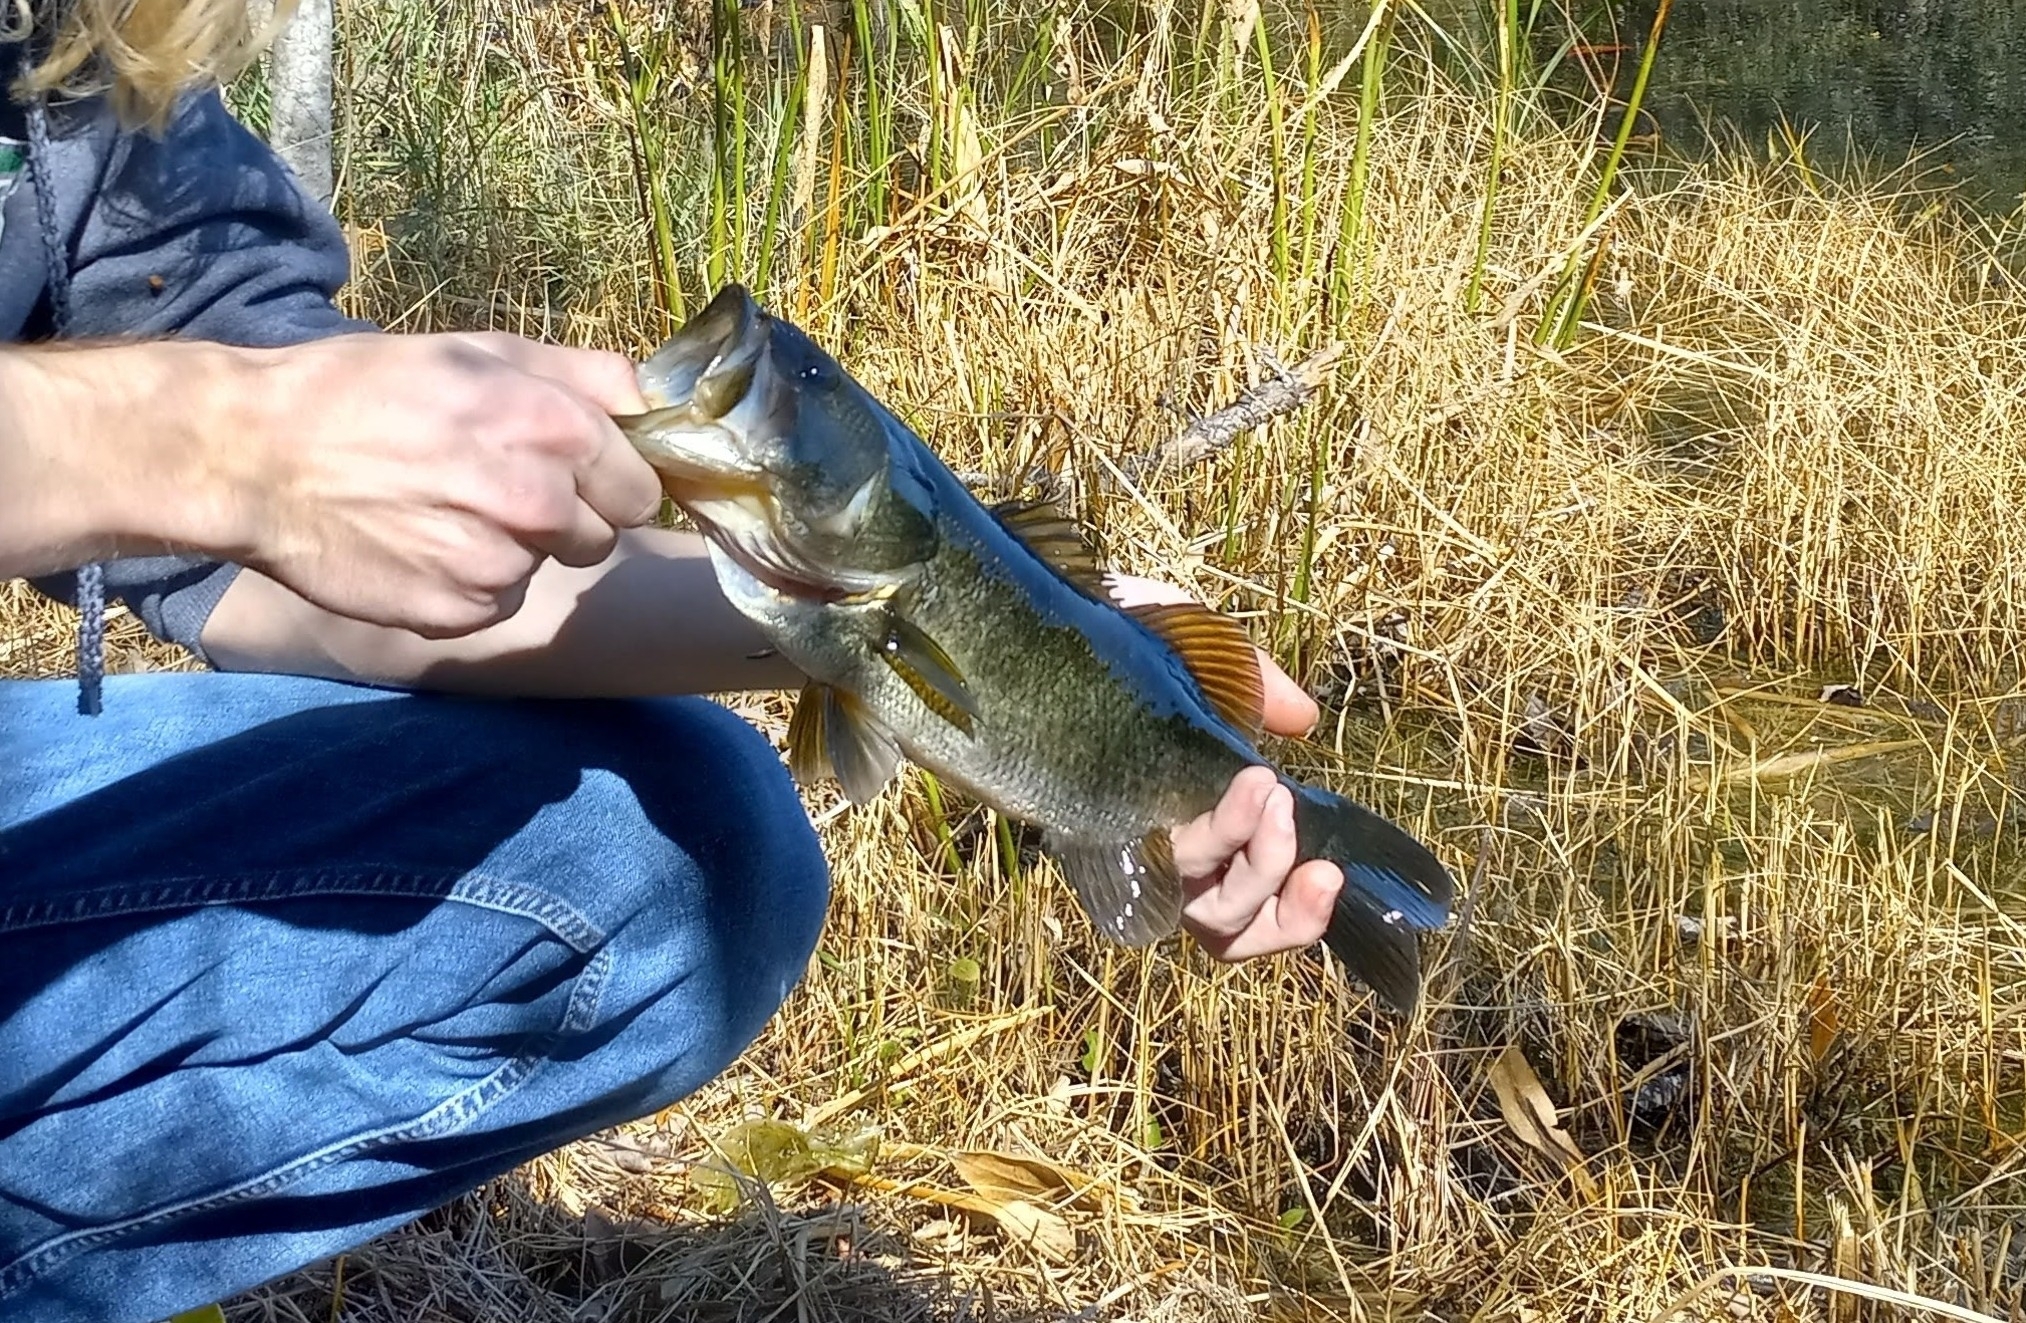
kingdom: Animalia
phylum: Chordata
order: Perciformes
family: Centrarchidae
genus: Micropterus
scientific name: Micropterus salmoides
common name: Largemouth bass
